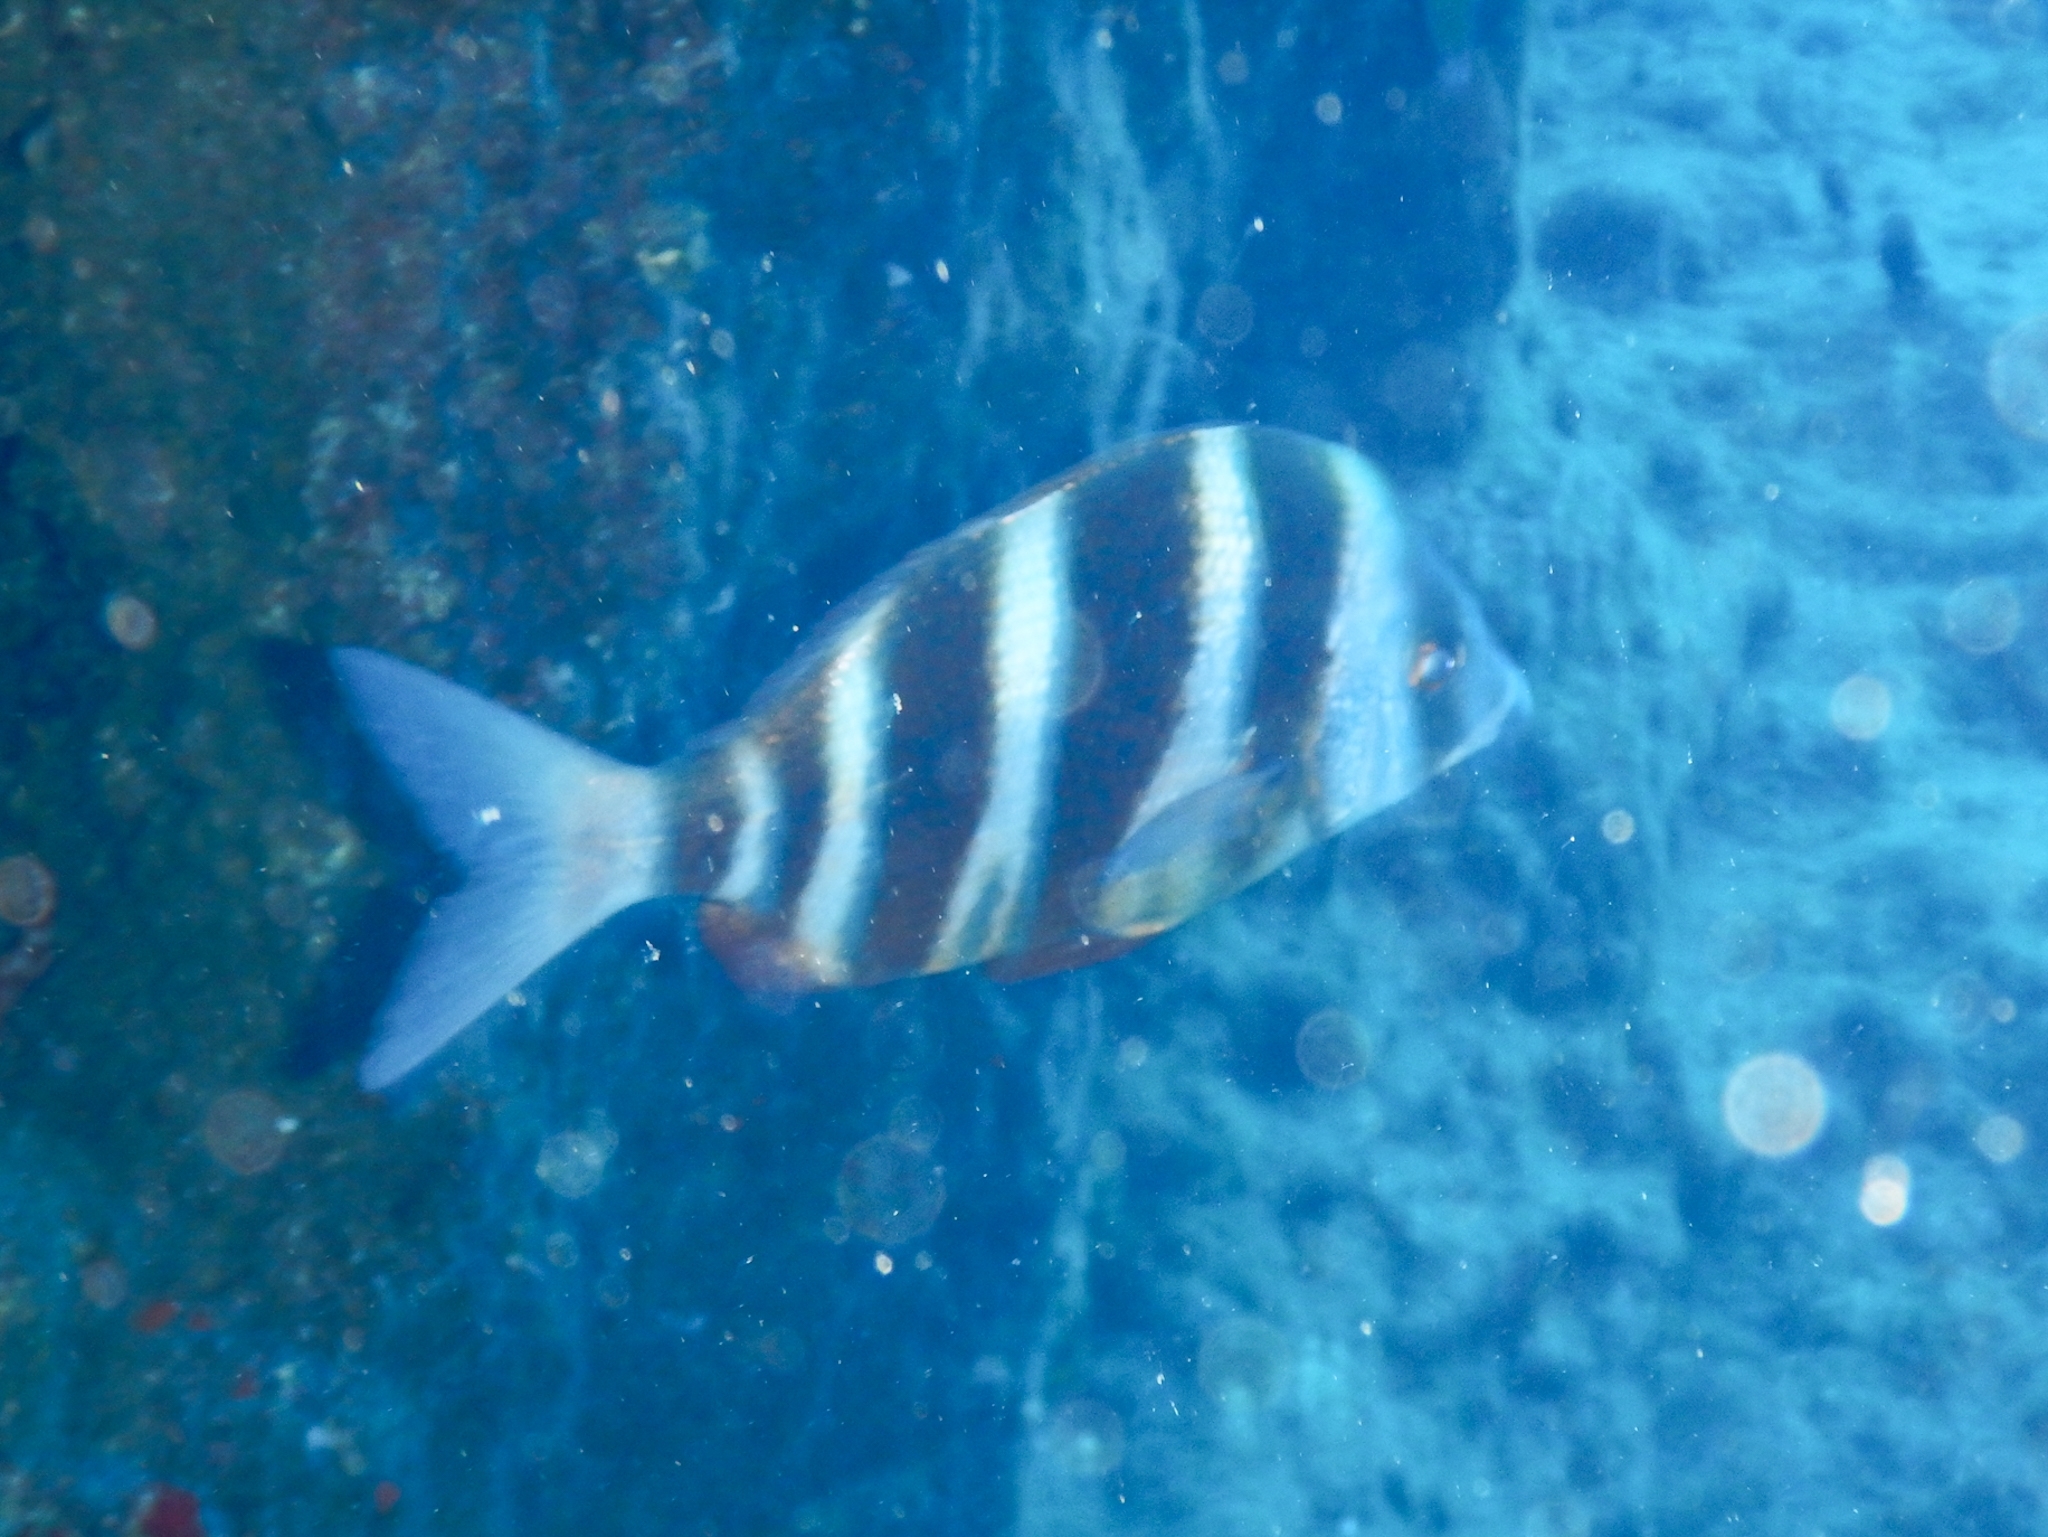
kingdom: Animalia
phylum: Chordata
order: Perciformes
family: Sparidae
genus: Diplodus
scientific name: Diplodus cervinus
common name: Oman porgy
